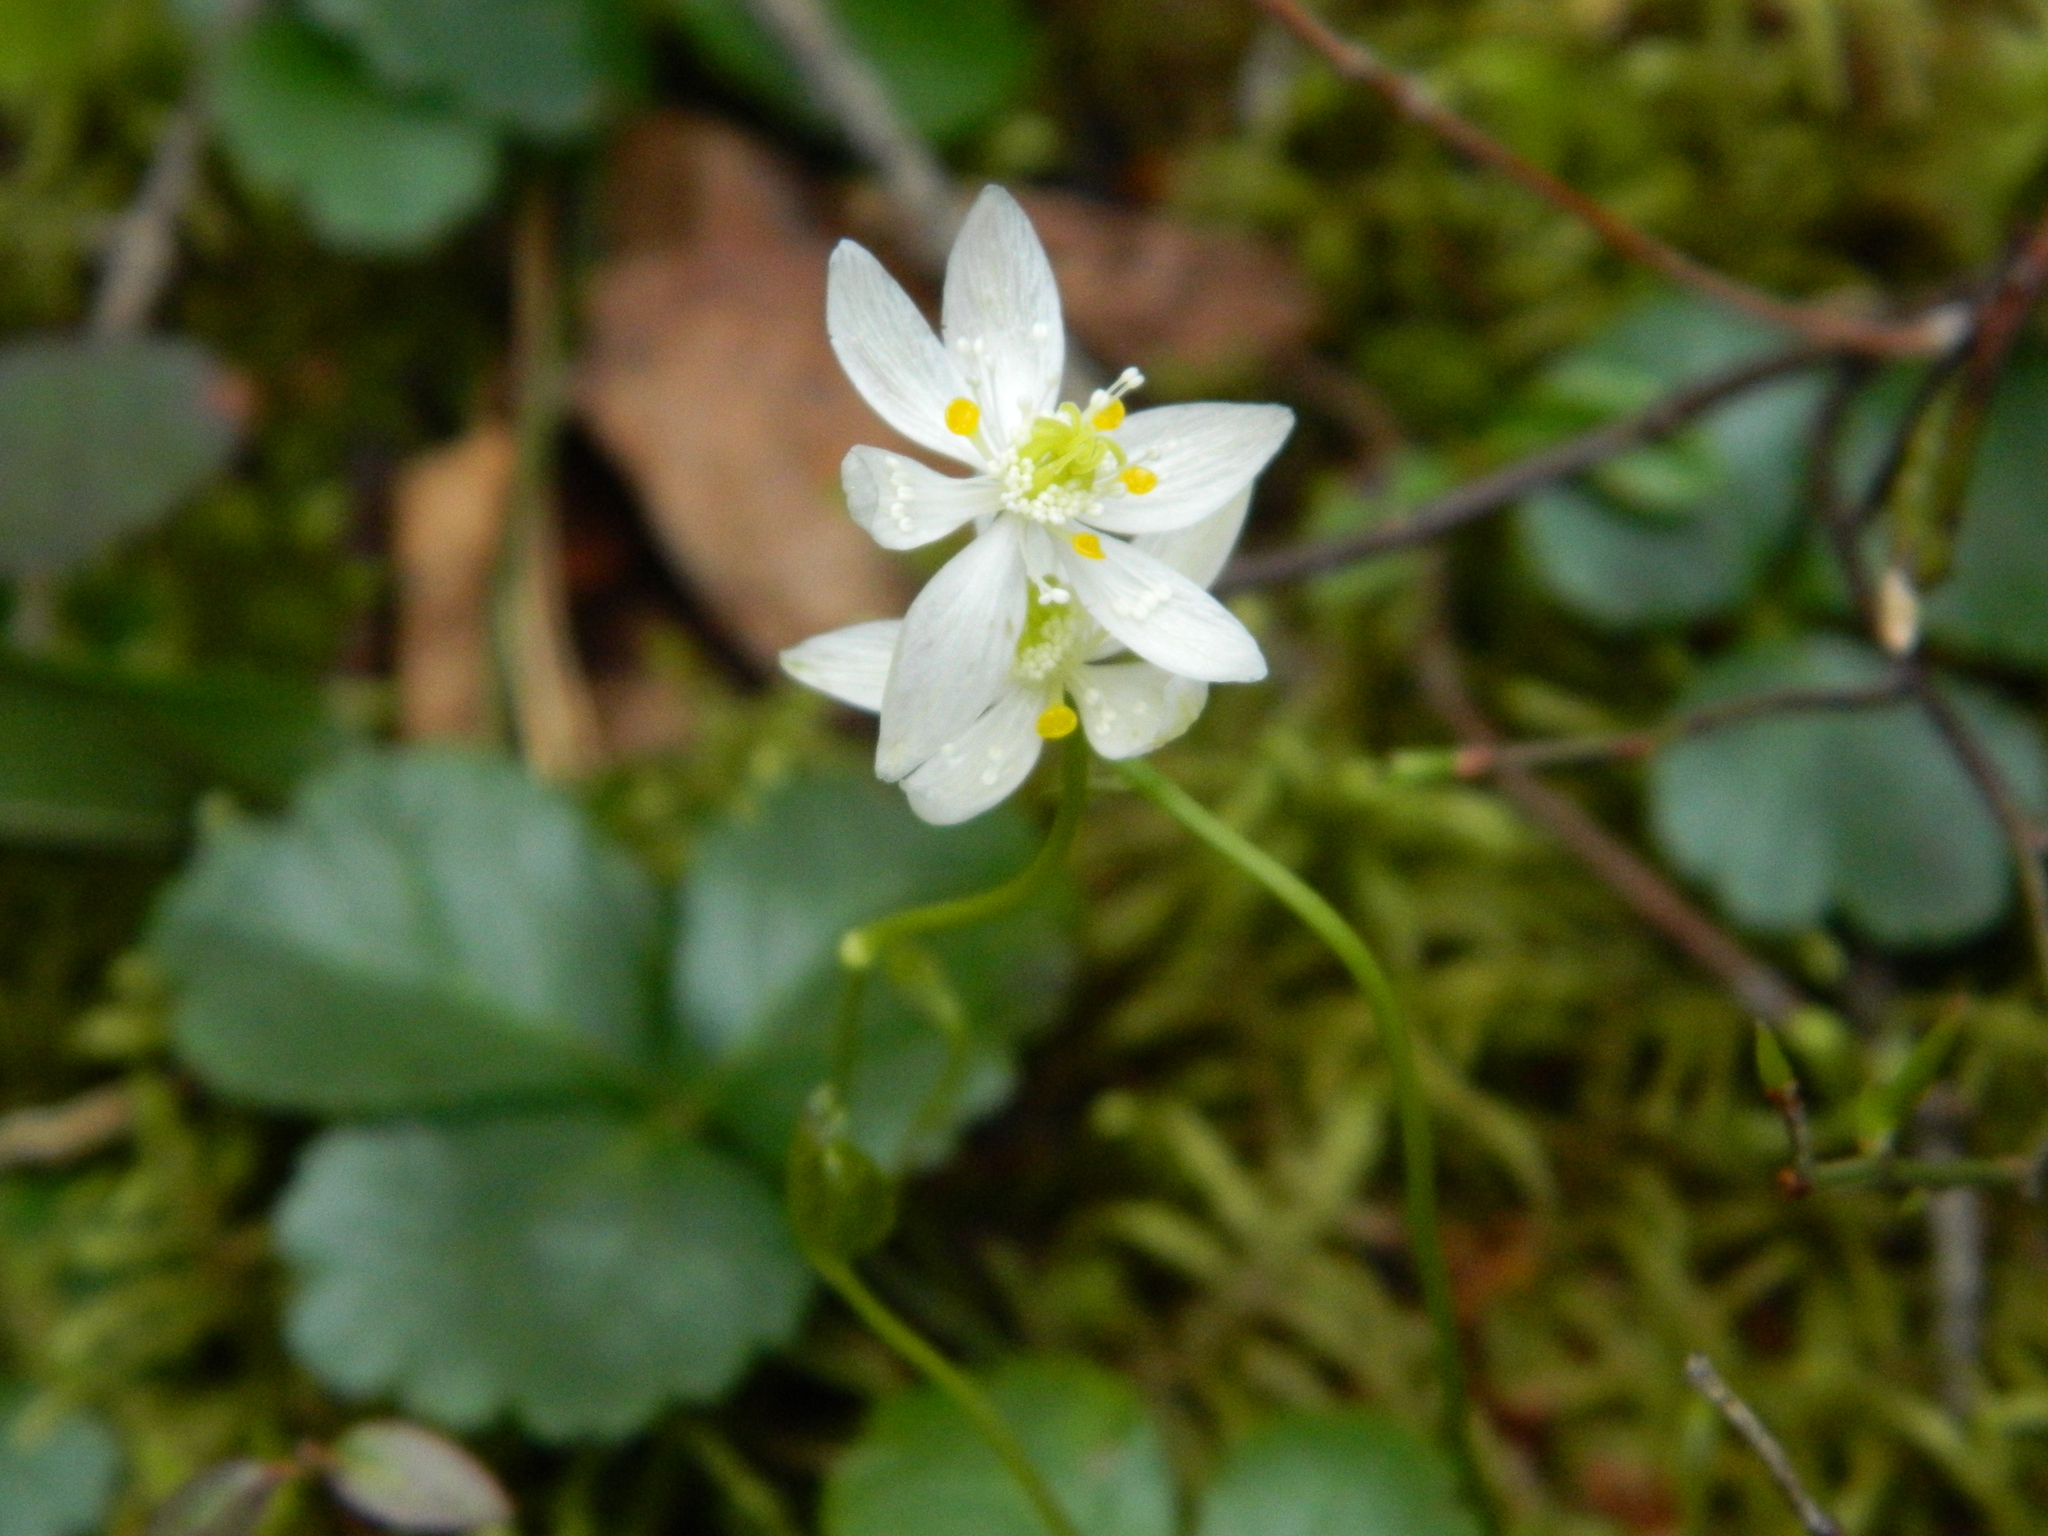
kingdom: Plantae
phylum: Tracheophyta
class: Magnoliopsida
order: Ranunculales
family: Ranunculaceae
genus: Coptis
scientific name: Coptis trifolia
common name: Canker-root
